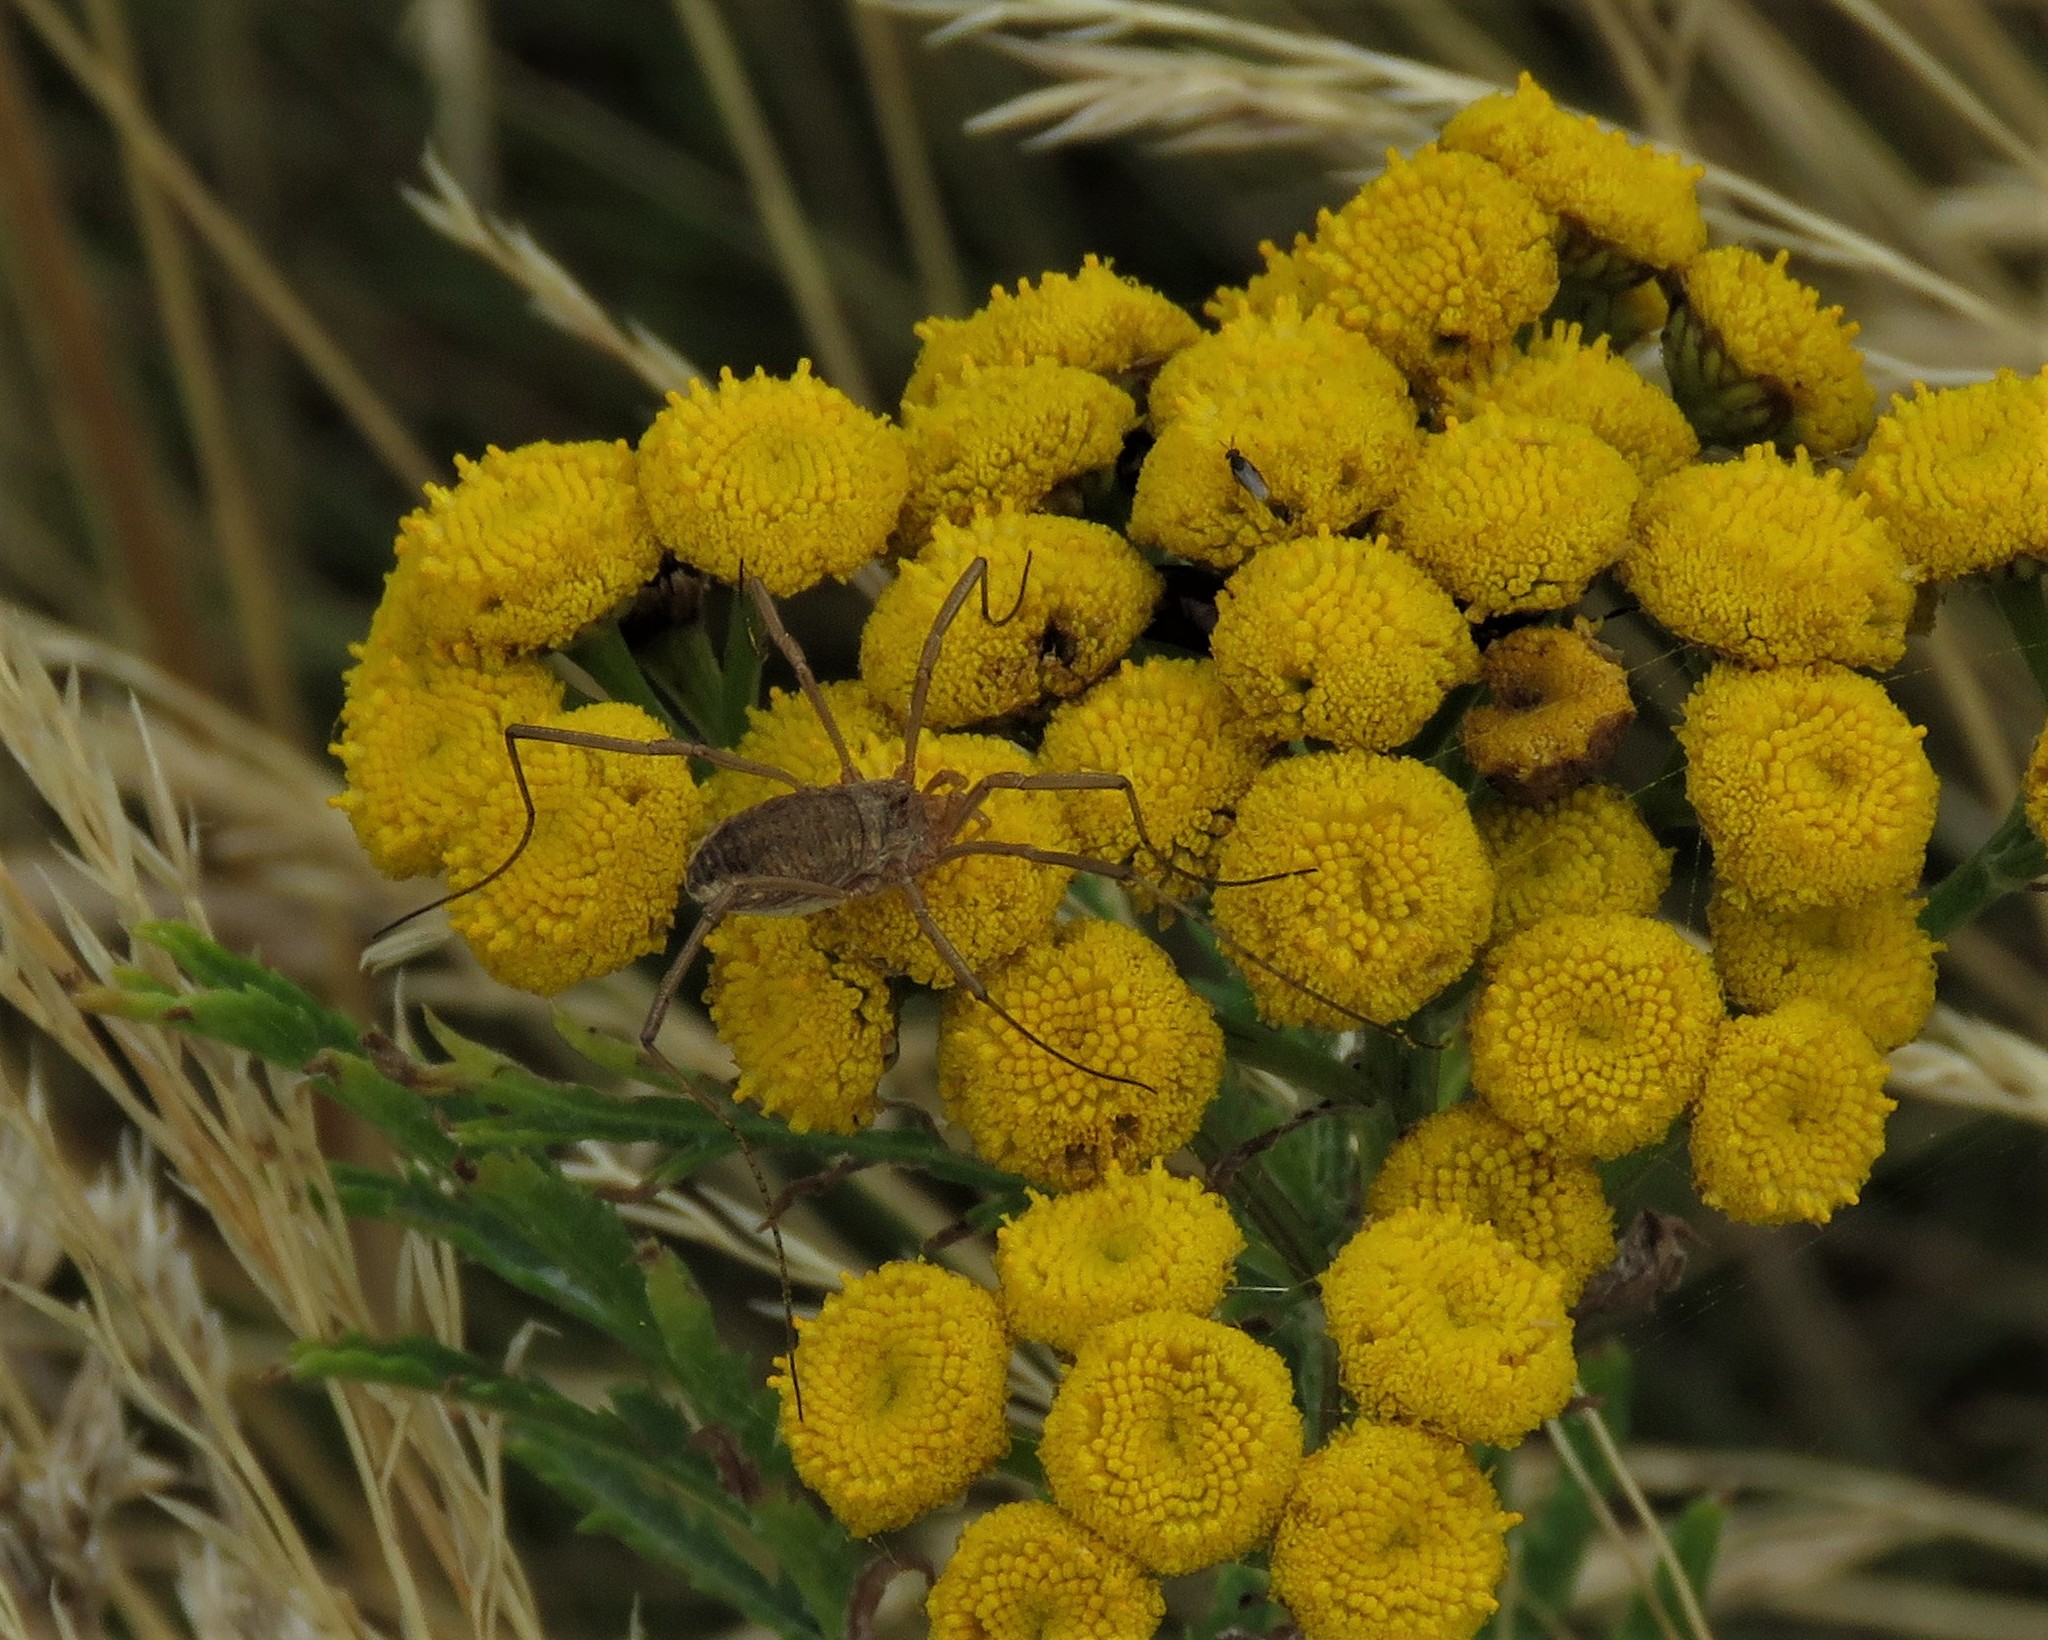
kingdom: Animalia
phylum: Arthropoda
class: Arachnida
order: Opiliones
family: Phalangiidae
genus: Phalangium
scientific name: Phalangium opilio
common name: Daddy longleg
